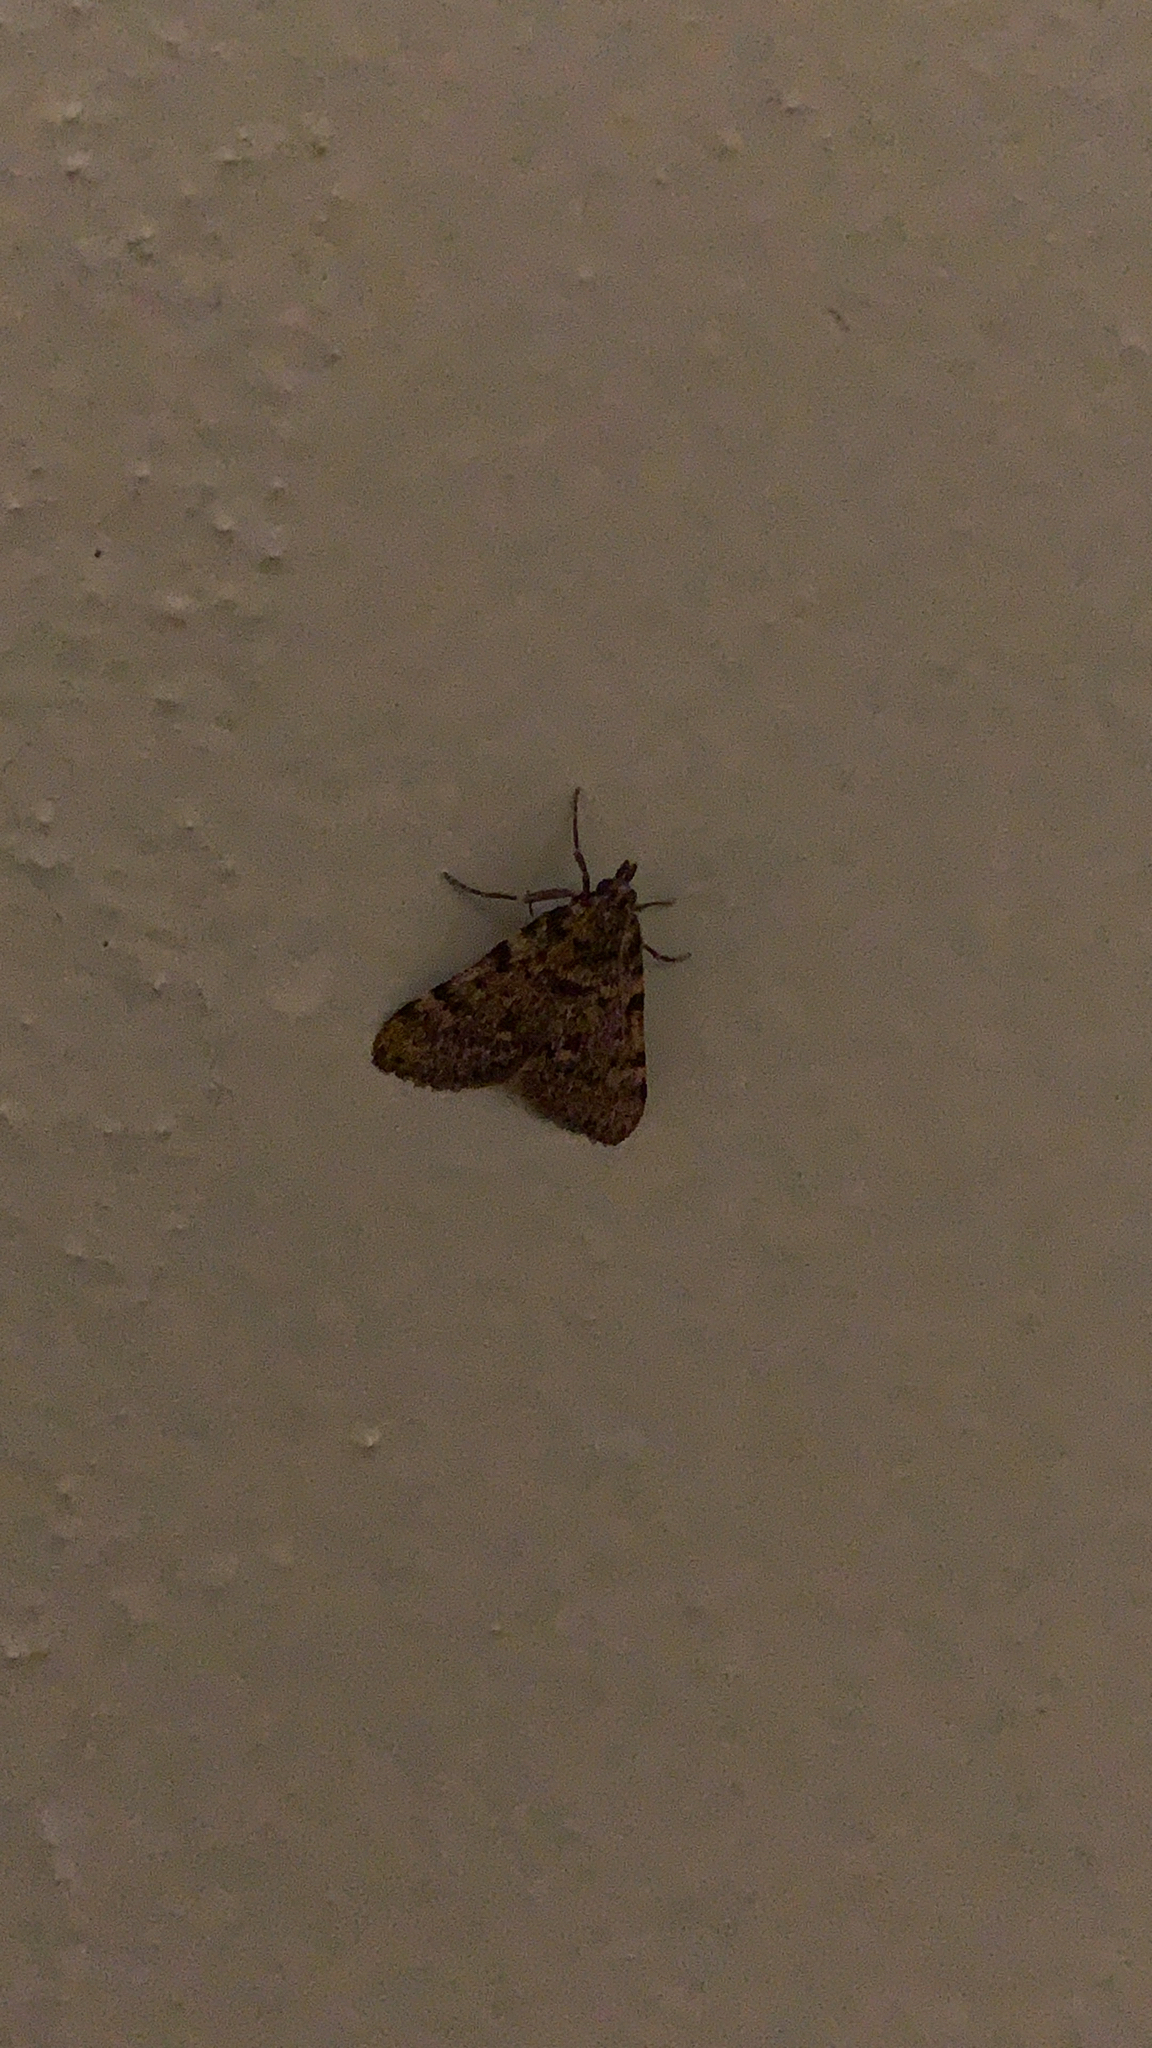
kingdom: Animalia
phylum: Arthropoda
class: Insecta
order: Lepidoptera
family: Pyralidae
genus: Aglossa
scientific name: Aglossa pinguinalis
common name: Large tabby
